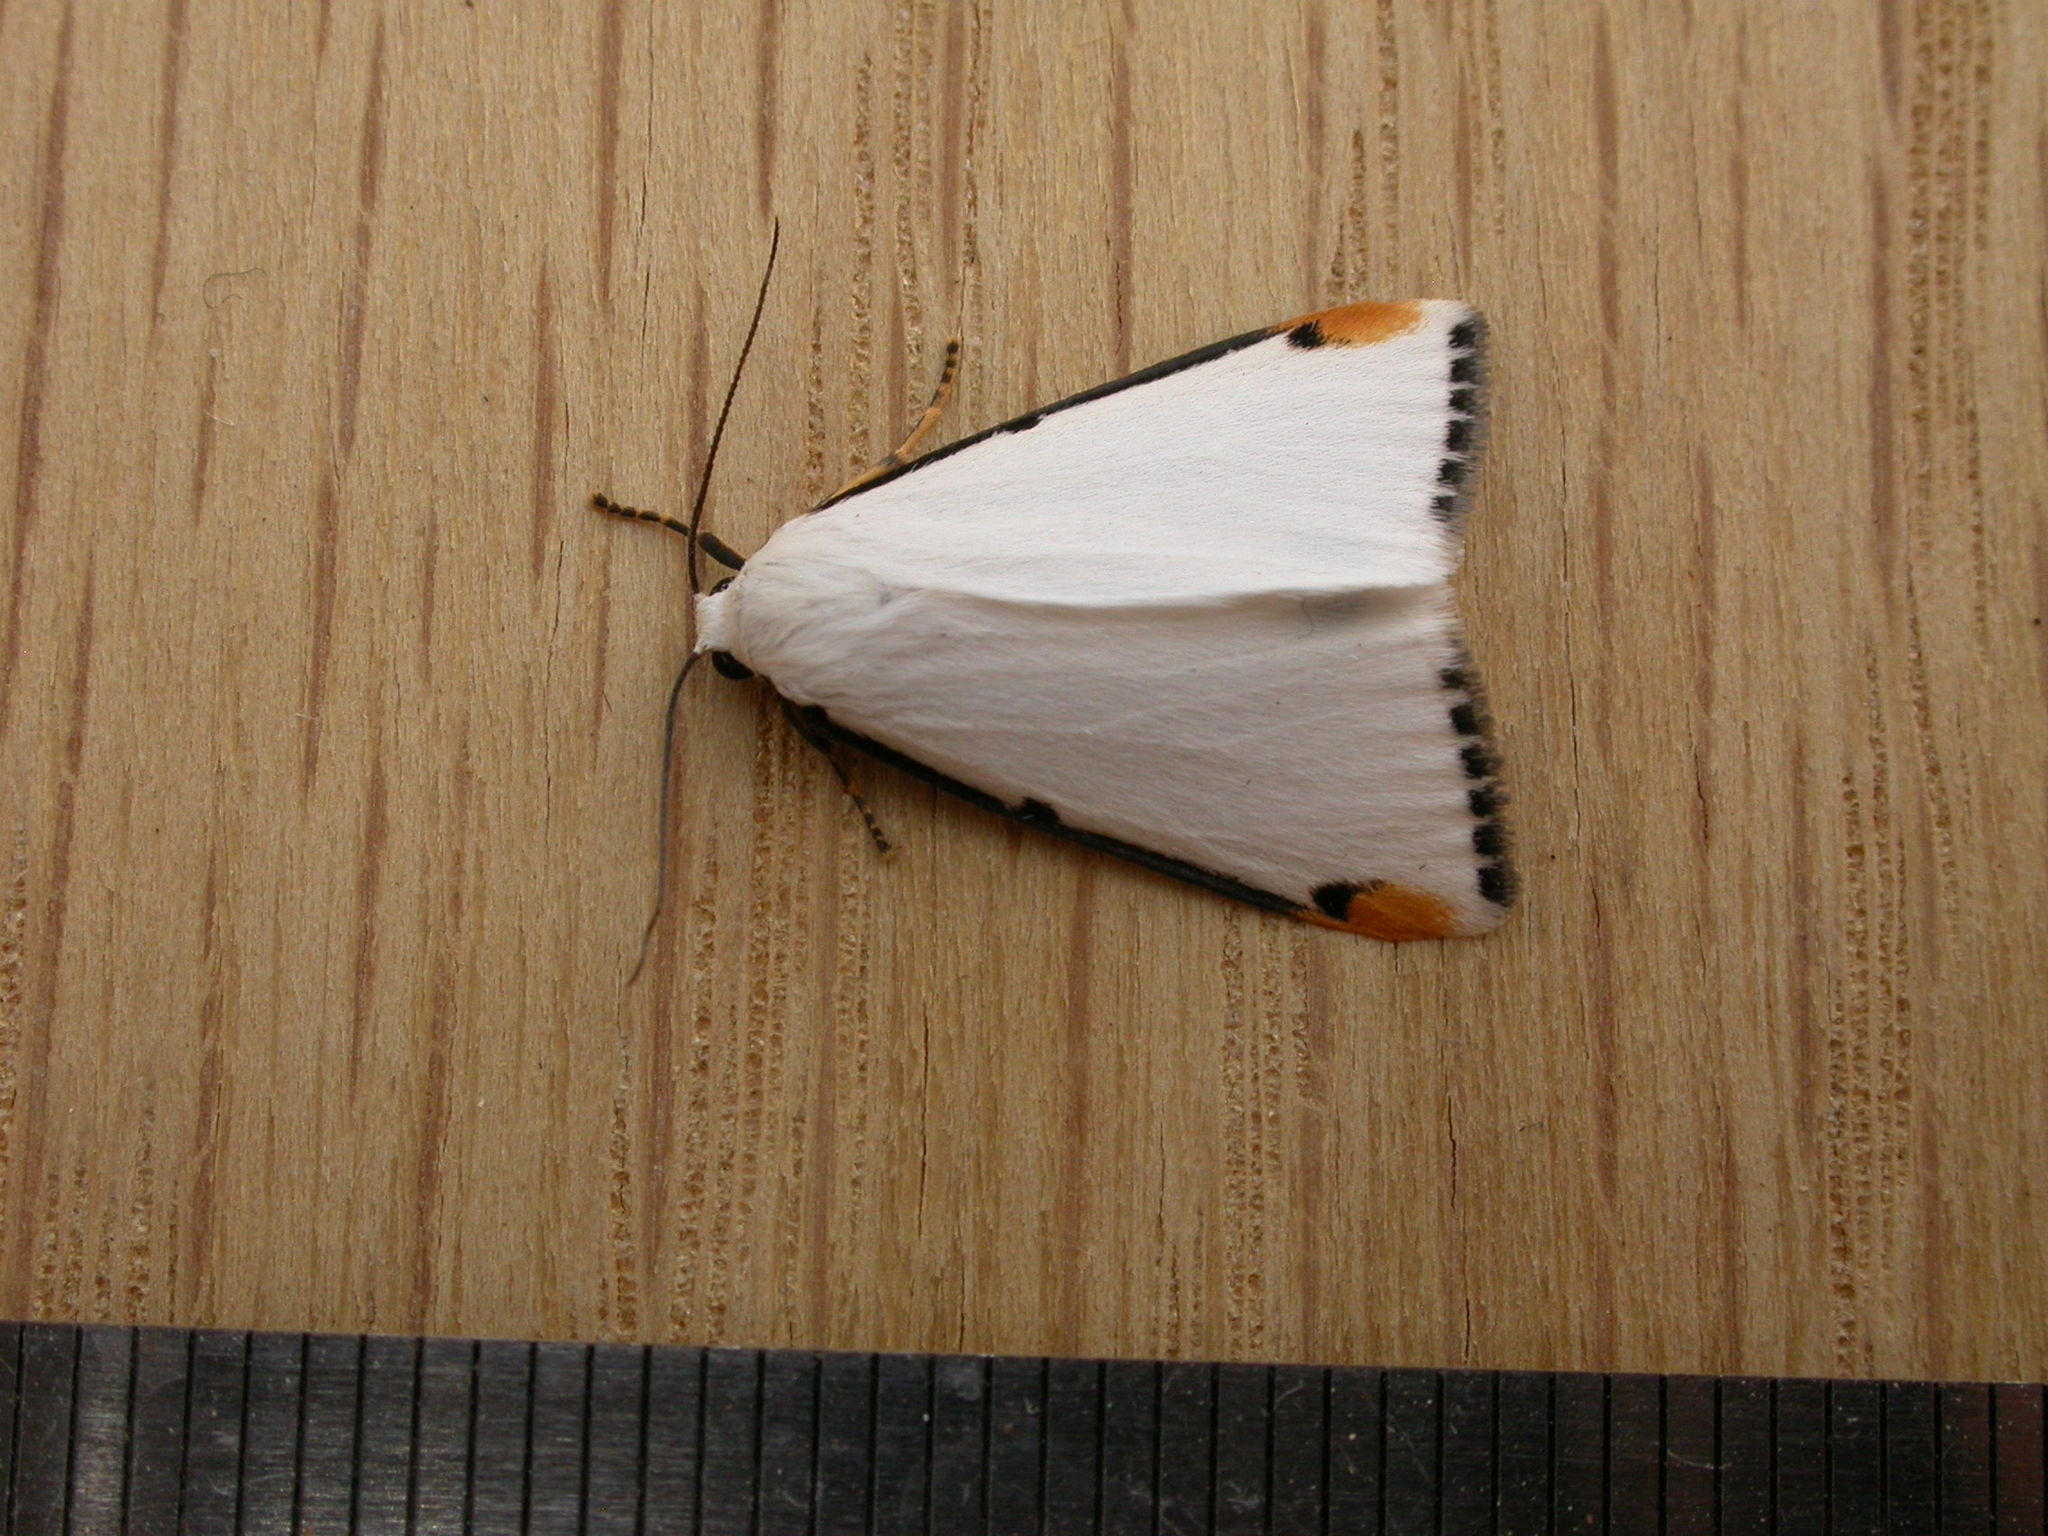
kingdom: Animalia
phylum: Arthropoda
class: Insecta
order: Lepidoptera
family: Erebidae
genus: Termessa
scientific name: Termessa nivosa
